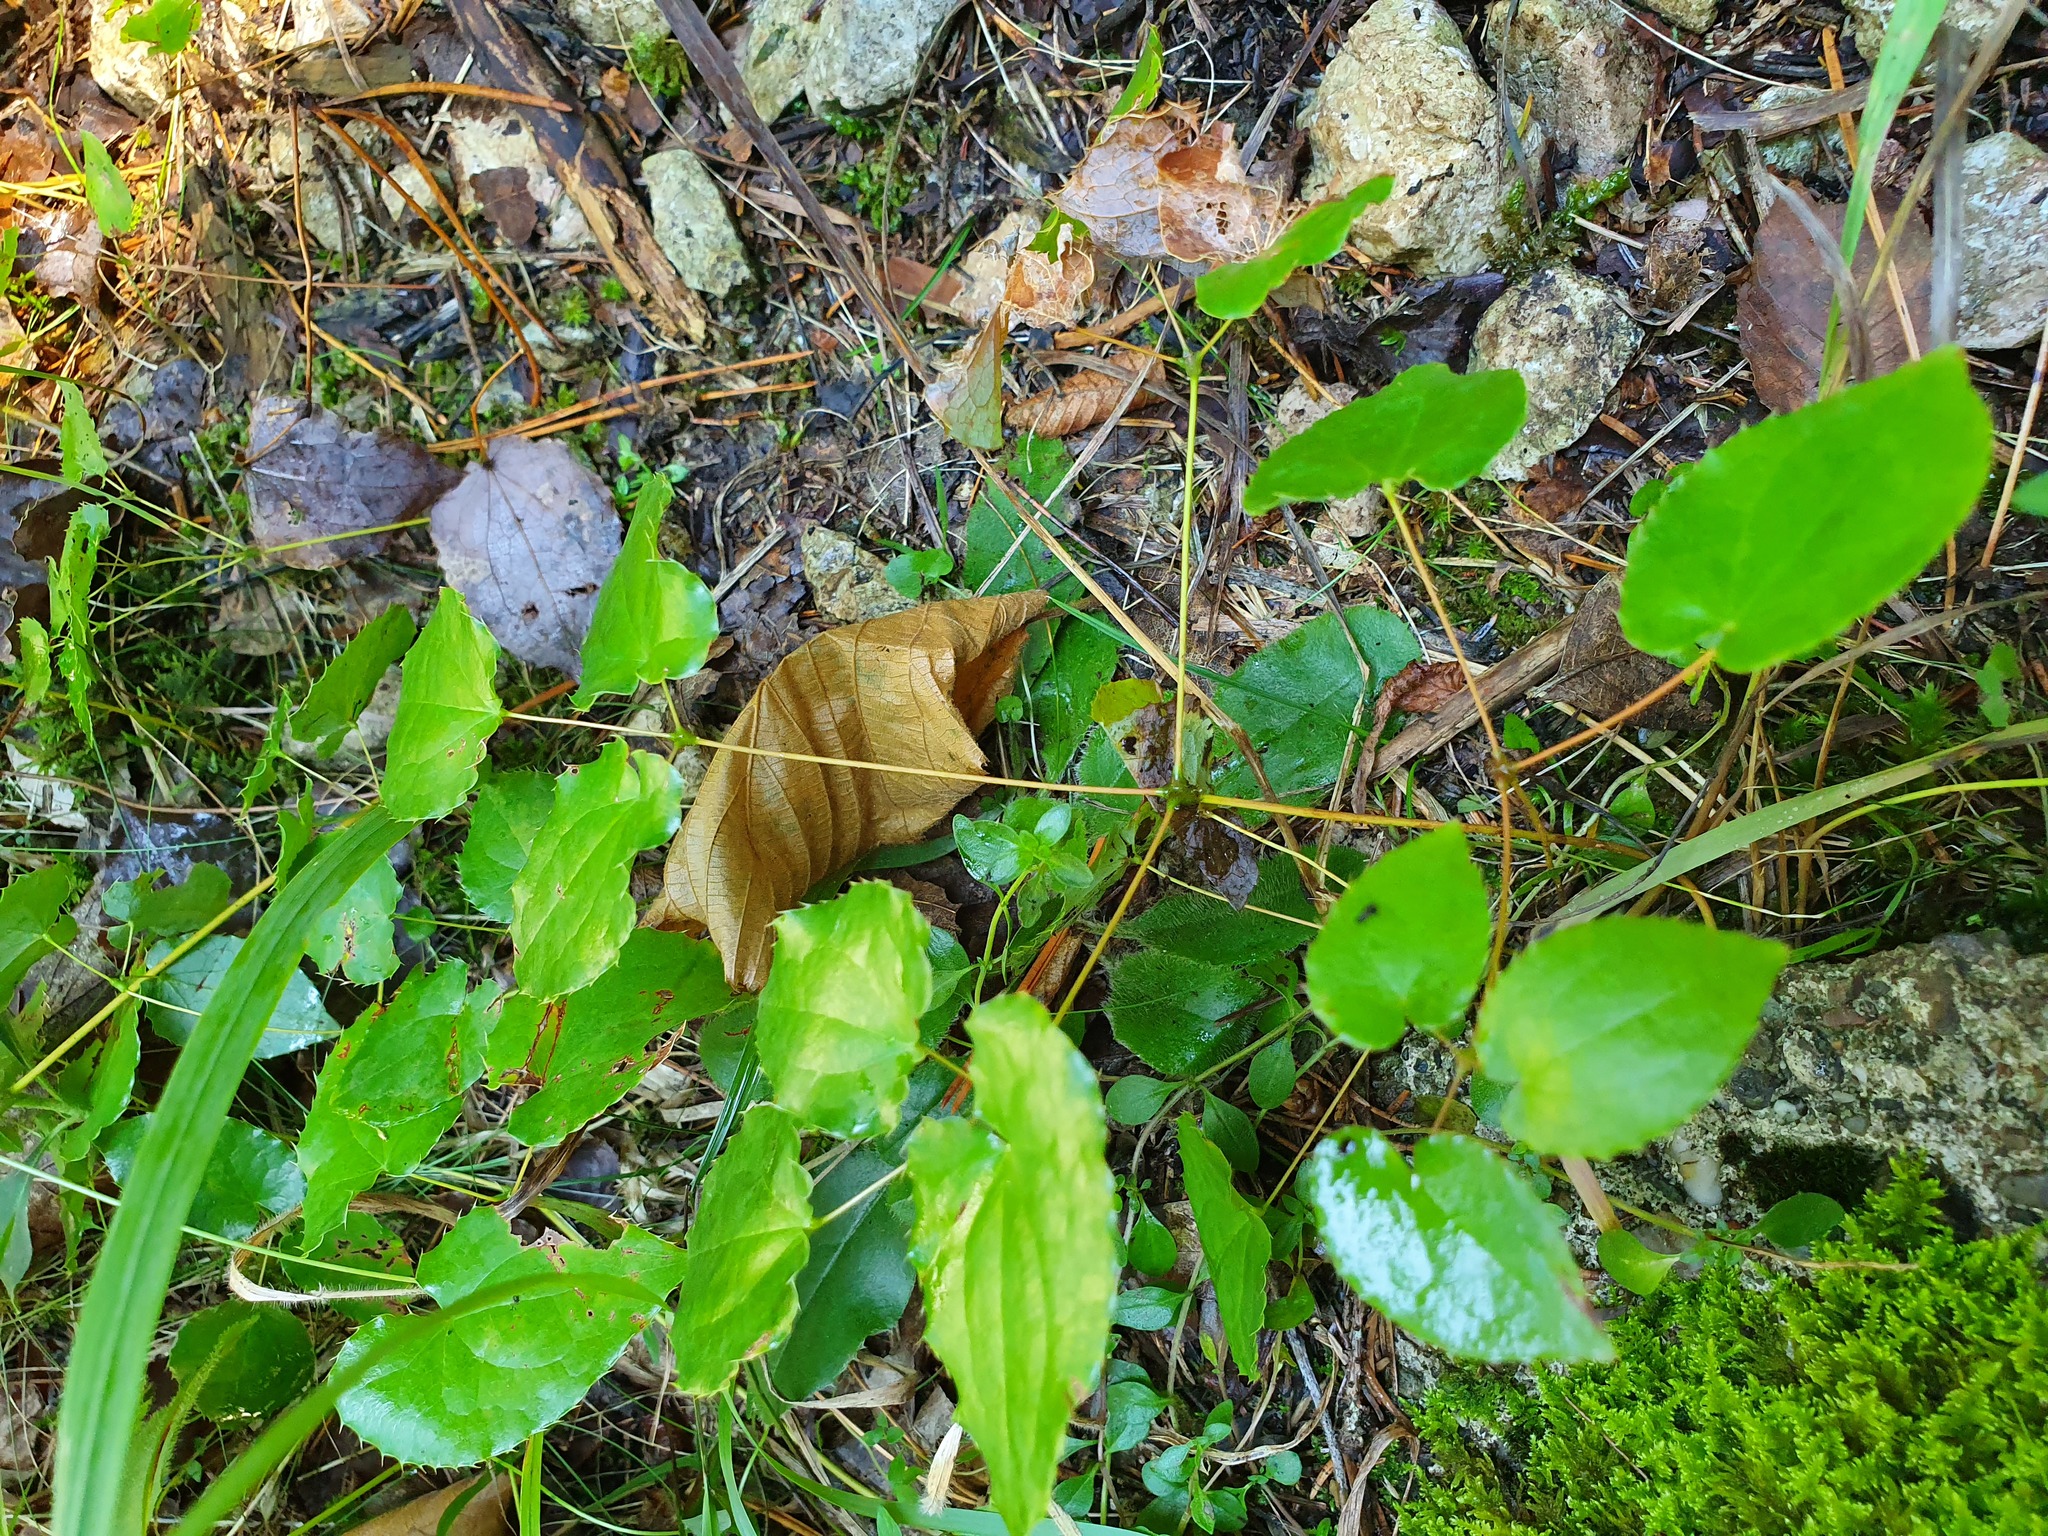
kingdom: Plantae
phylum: Tracheophyta
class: Magnoliopsida
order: Ranunculales
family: Berberidaceae
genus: Epimedium
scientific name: Epimedium alpinum
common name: Barrenwort
